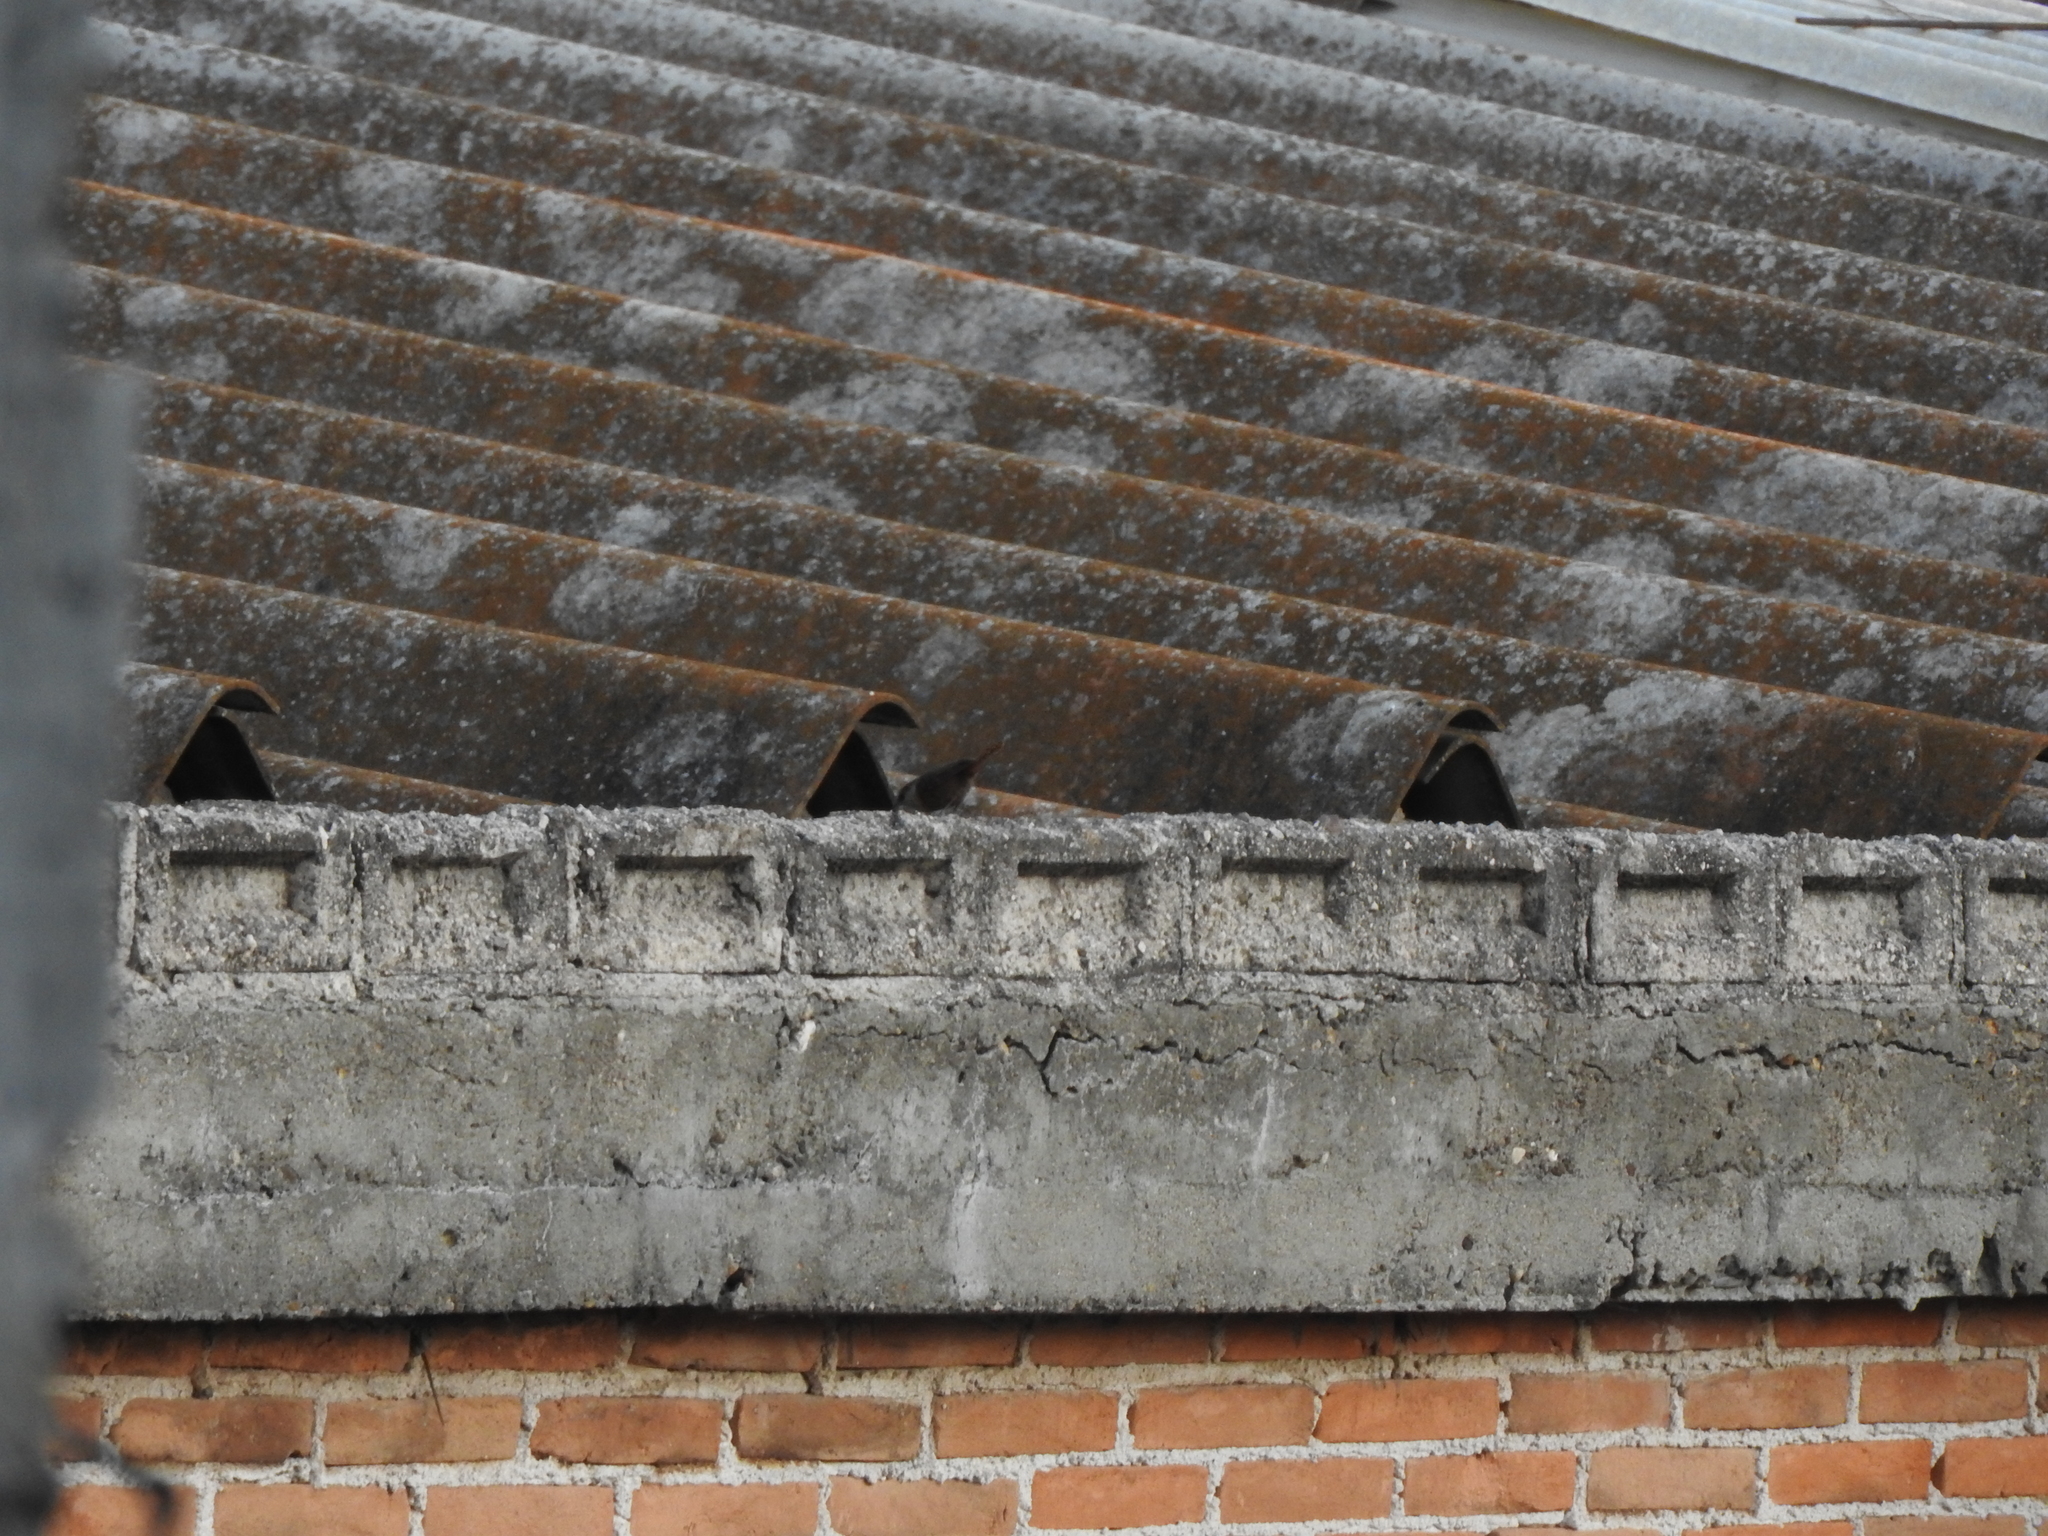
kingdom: Animalia
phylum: Chordata
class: Aves
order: Passeriformes
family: Troglodytidae
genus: Catherpes
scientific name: Catherpes mexicanus
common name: Canyon wren
